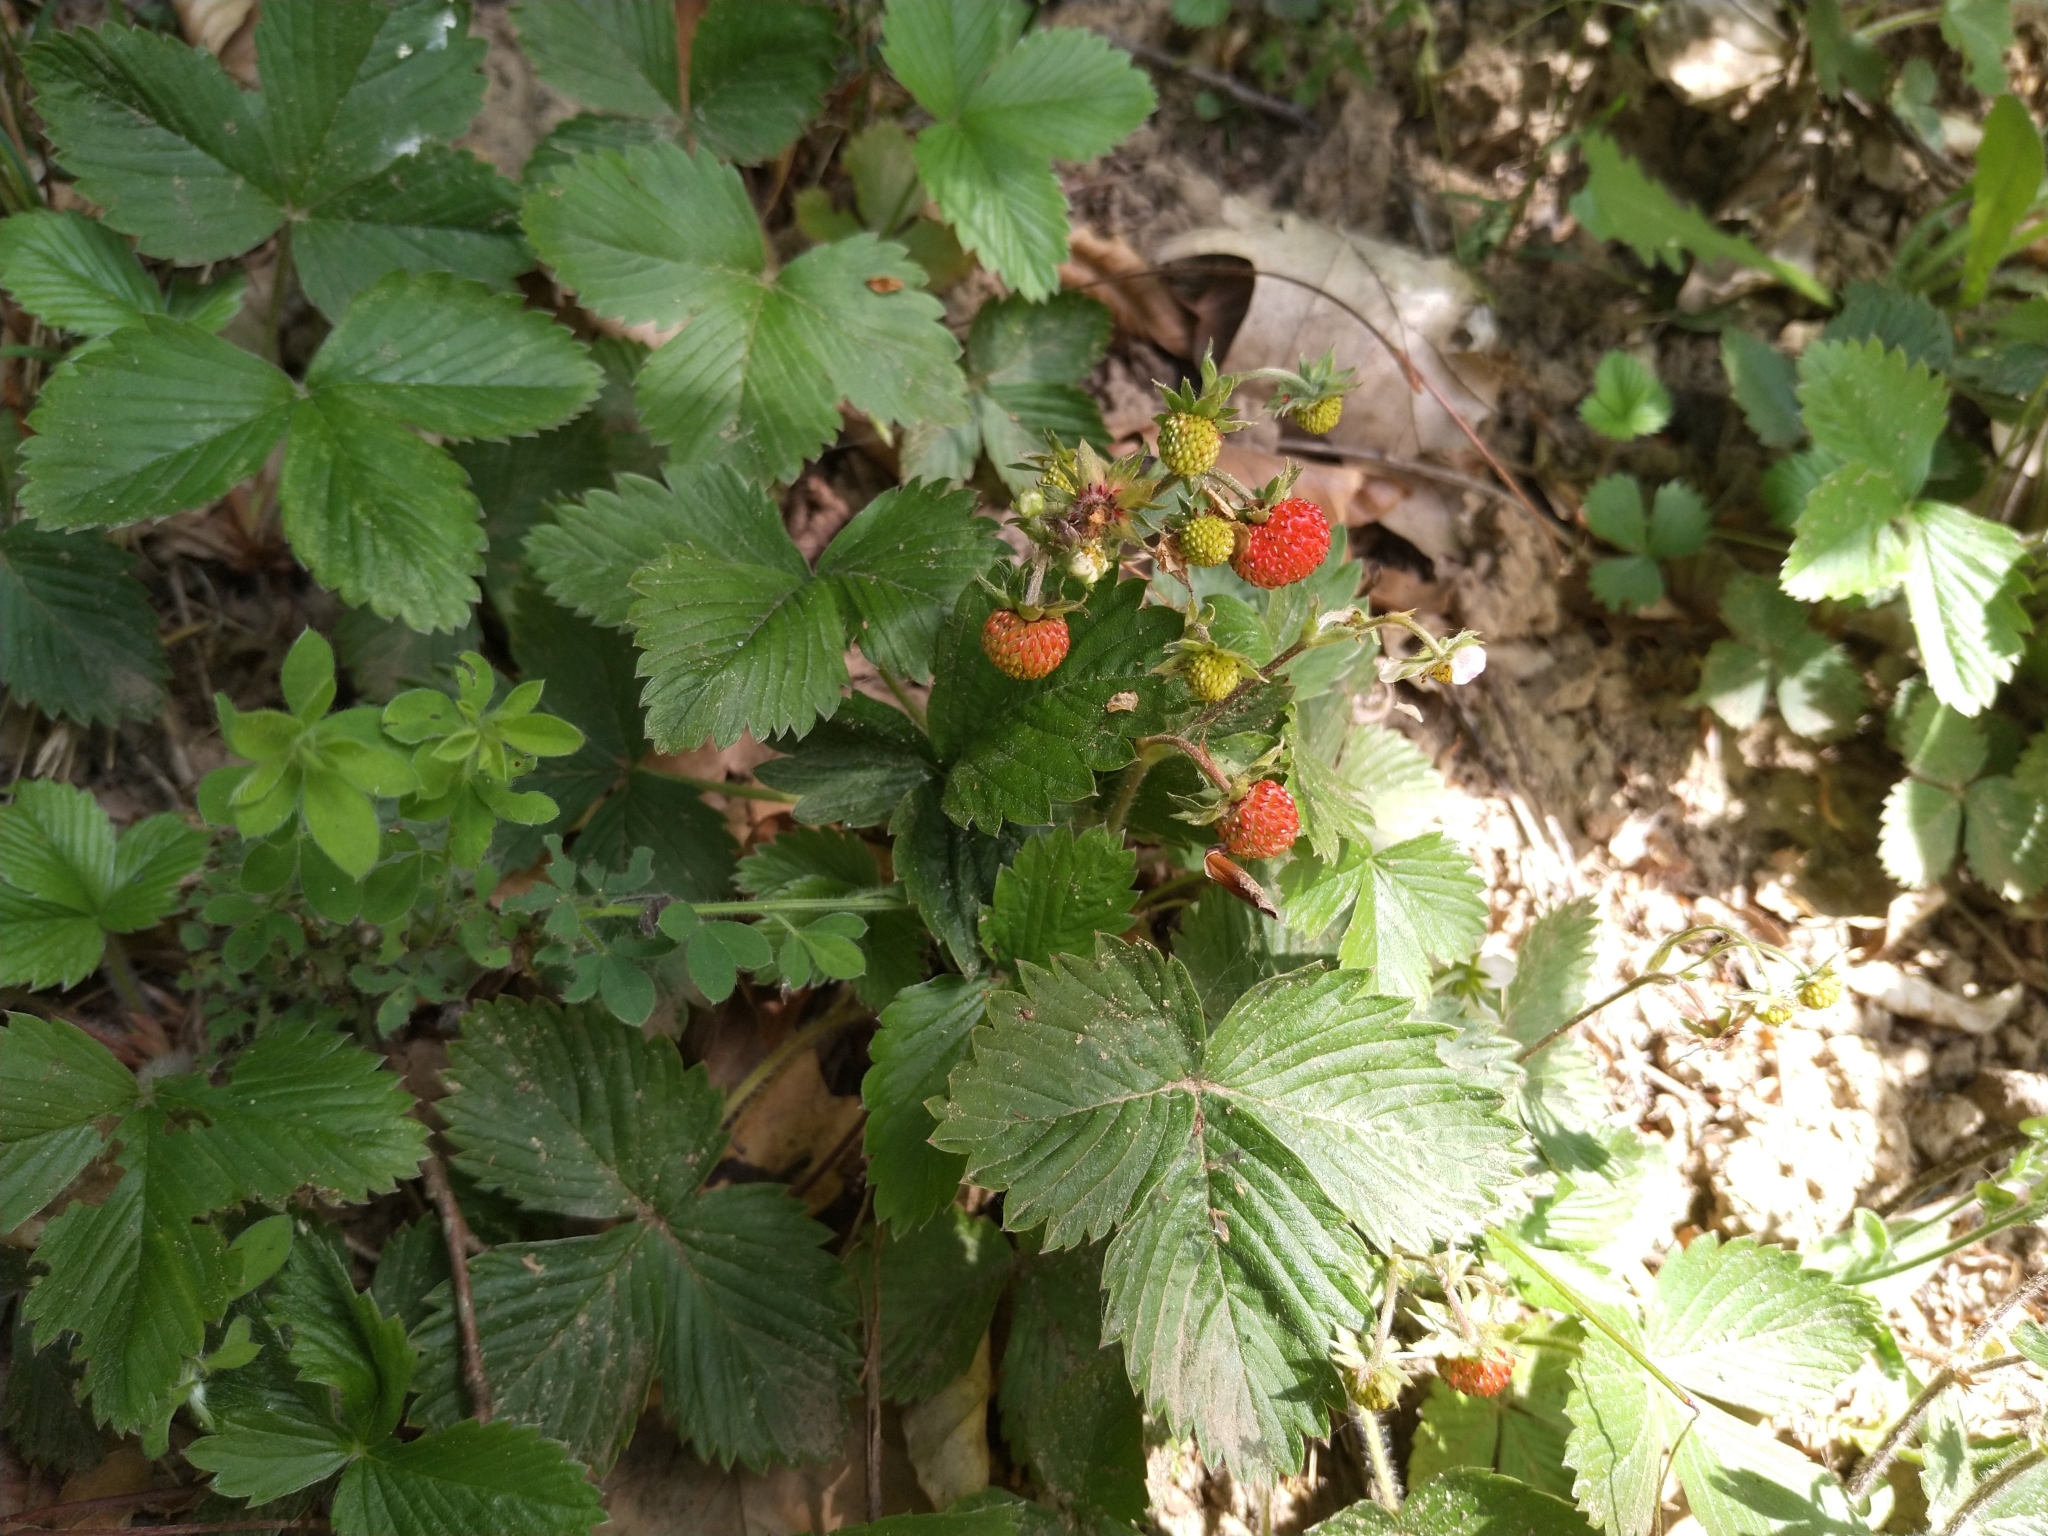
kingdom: Plantae
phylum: Tracheophyta
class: Magnoliopsida
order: Rosales
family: Rosaceae
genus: Fragaria
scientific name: Fragaria vesca
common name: Wild strawberry
